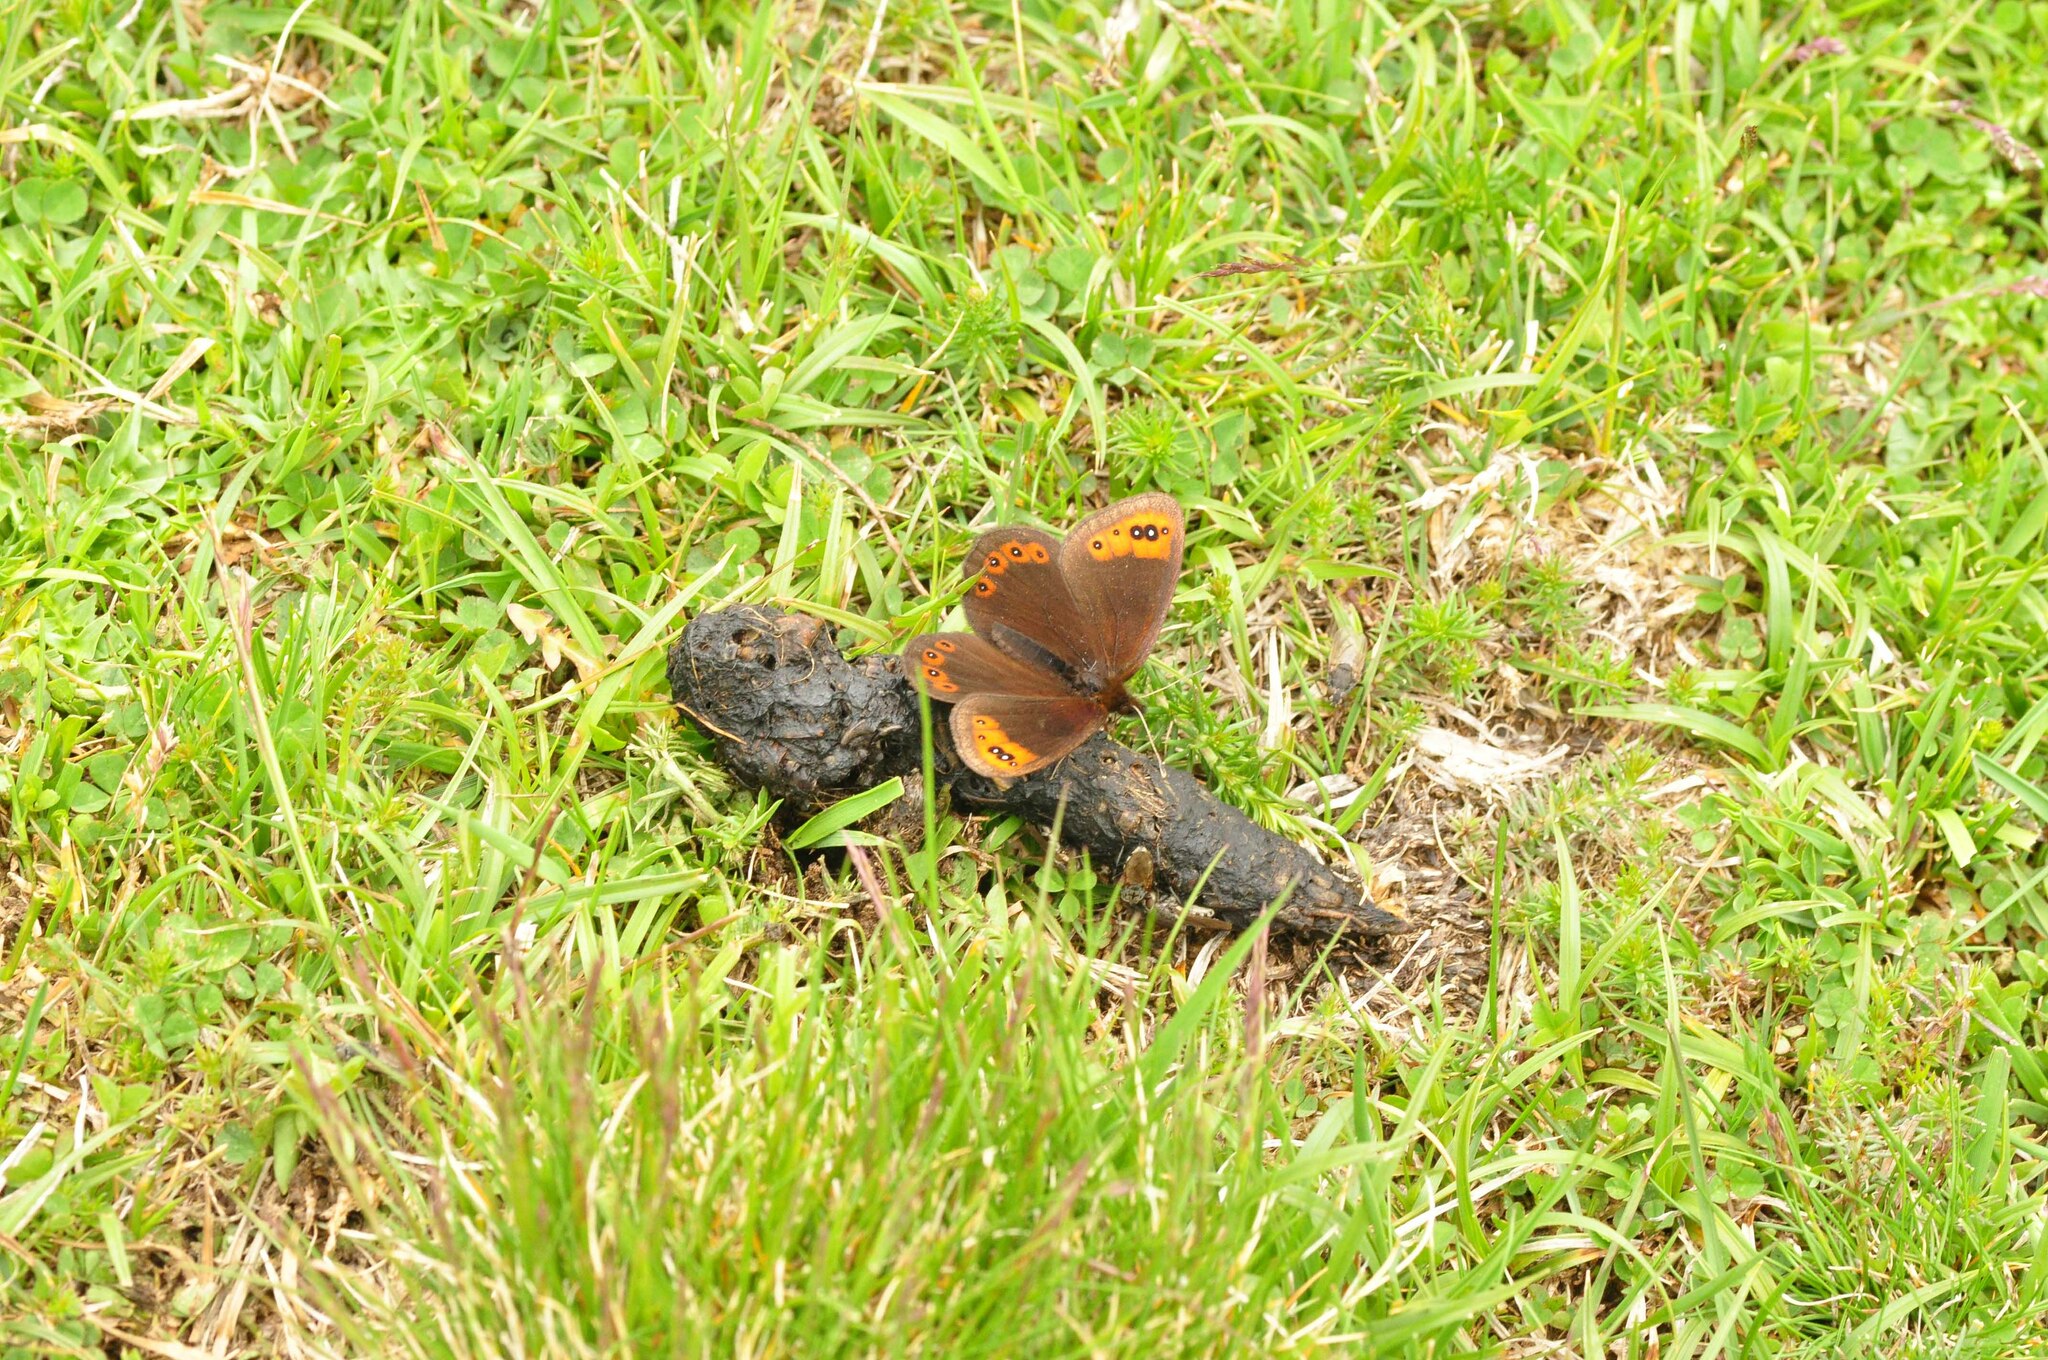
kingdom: Animalia
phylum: Arthropoda
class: Insecta
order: Lepidoptera
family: Nymphalidae
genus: Erebia
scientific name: Erebia triarius
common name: De prunner’s ringlet
